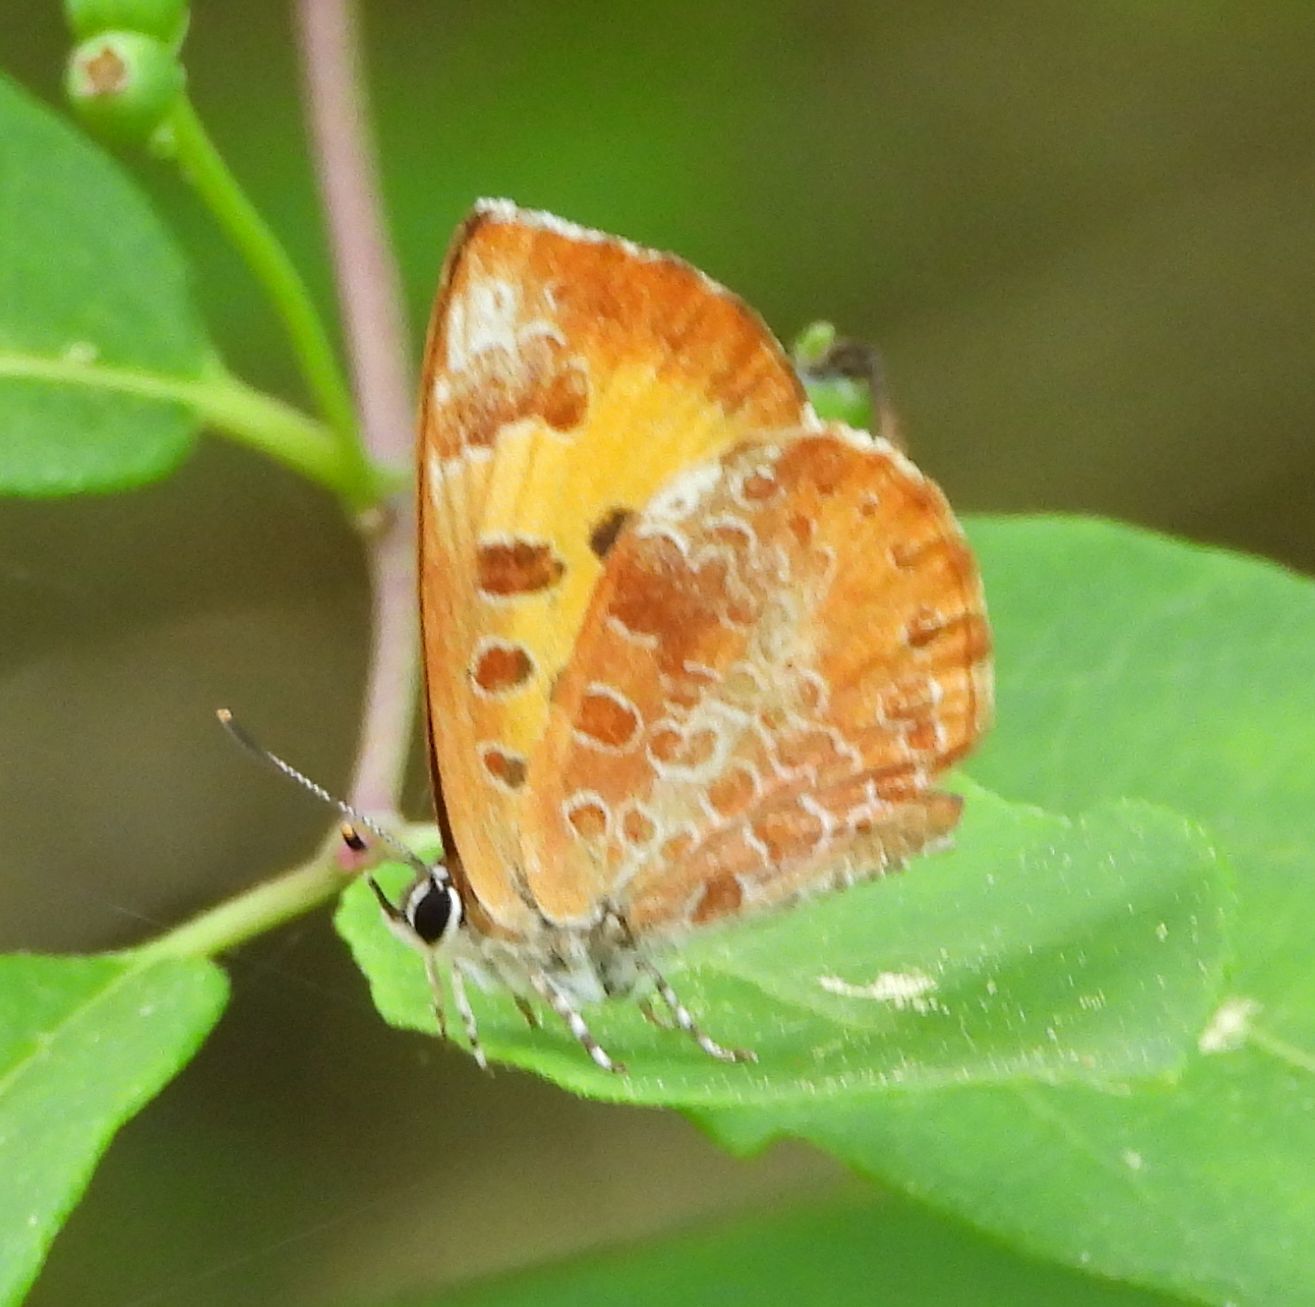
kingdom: Animalia
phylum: Arthropoda
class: Insecta
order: Lepidoptera
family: Lycaenidae
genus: Feniseca
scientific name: Feniseca tarquinius
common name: Harvester
